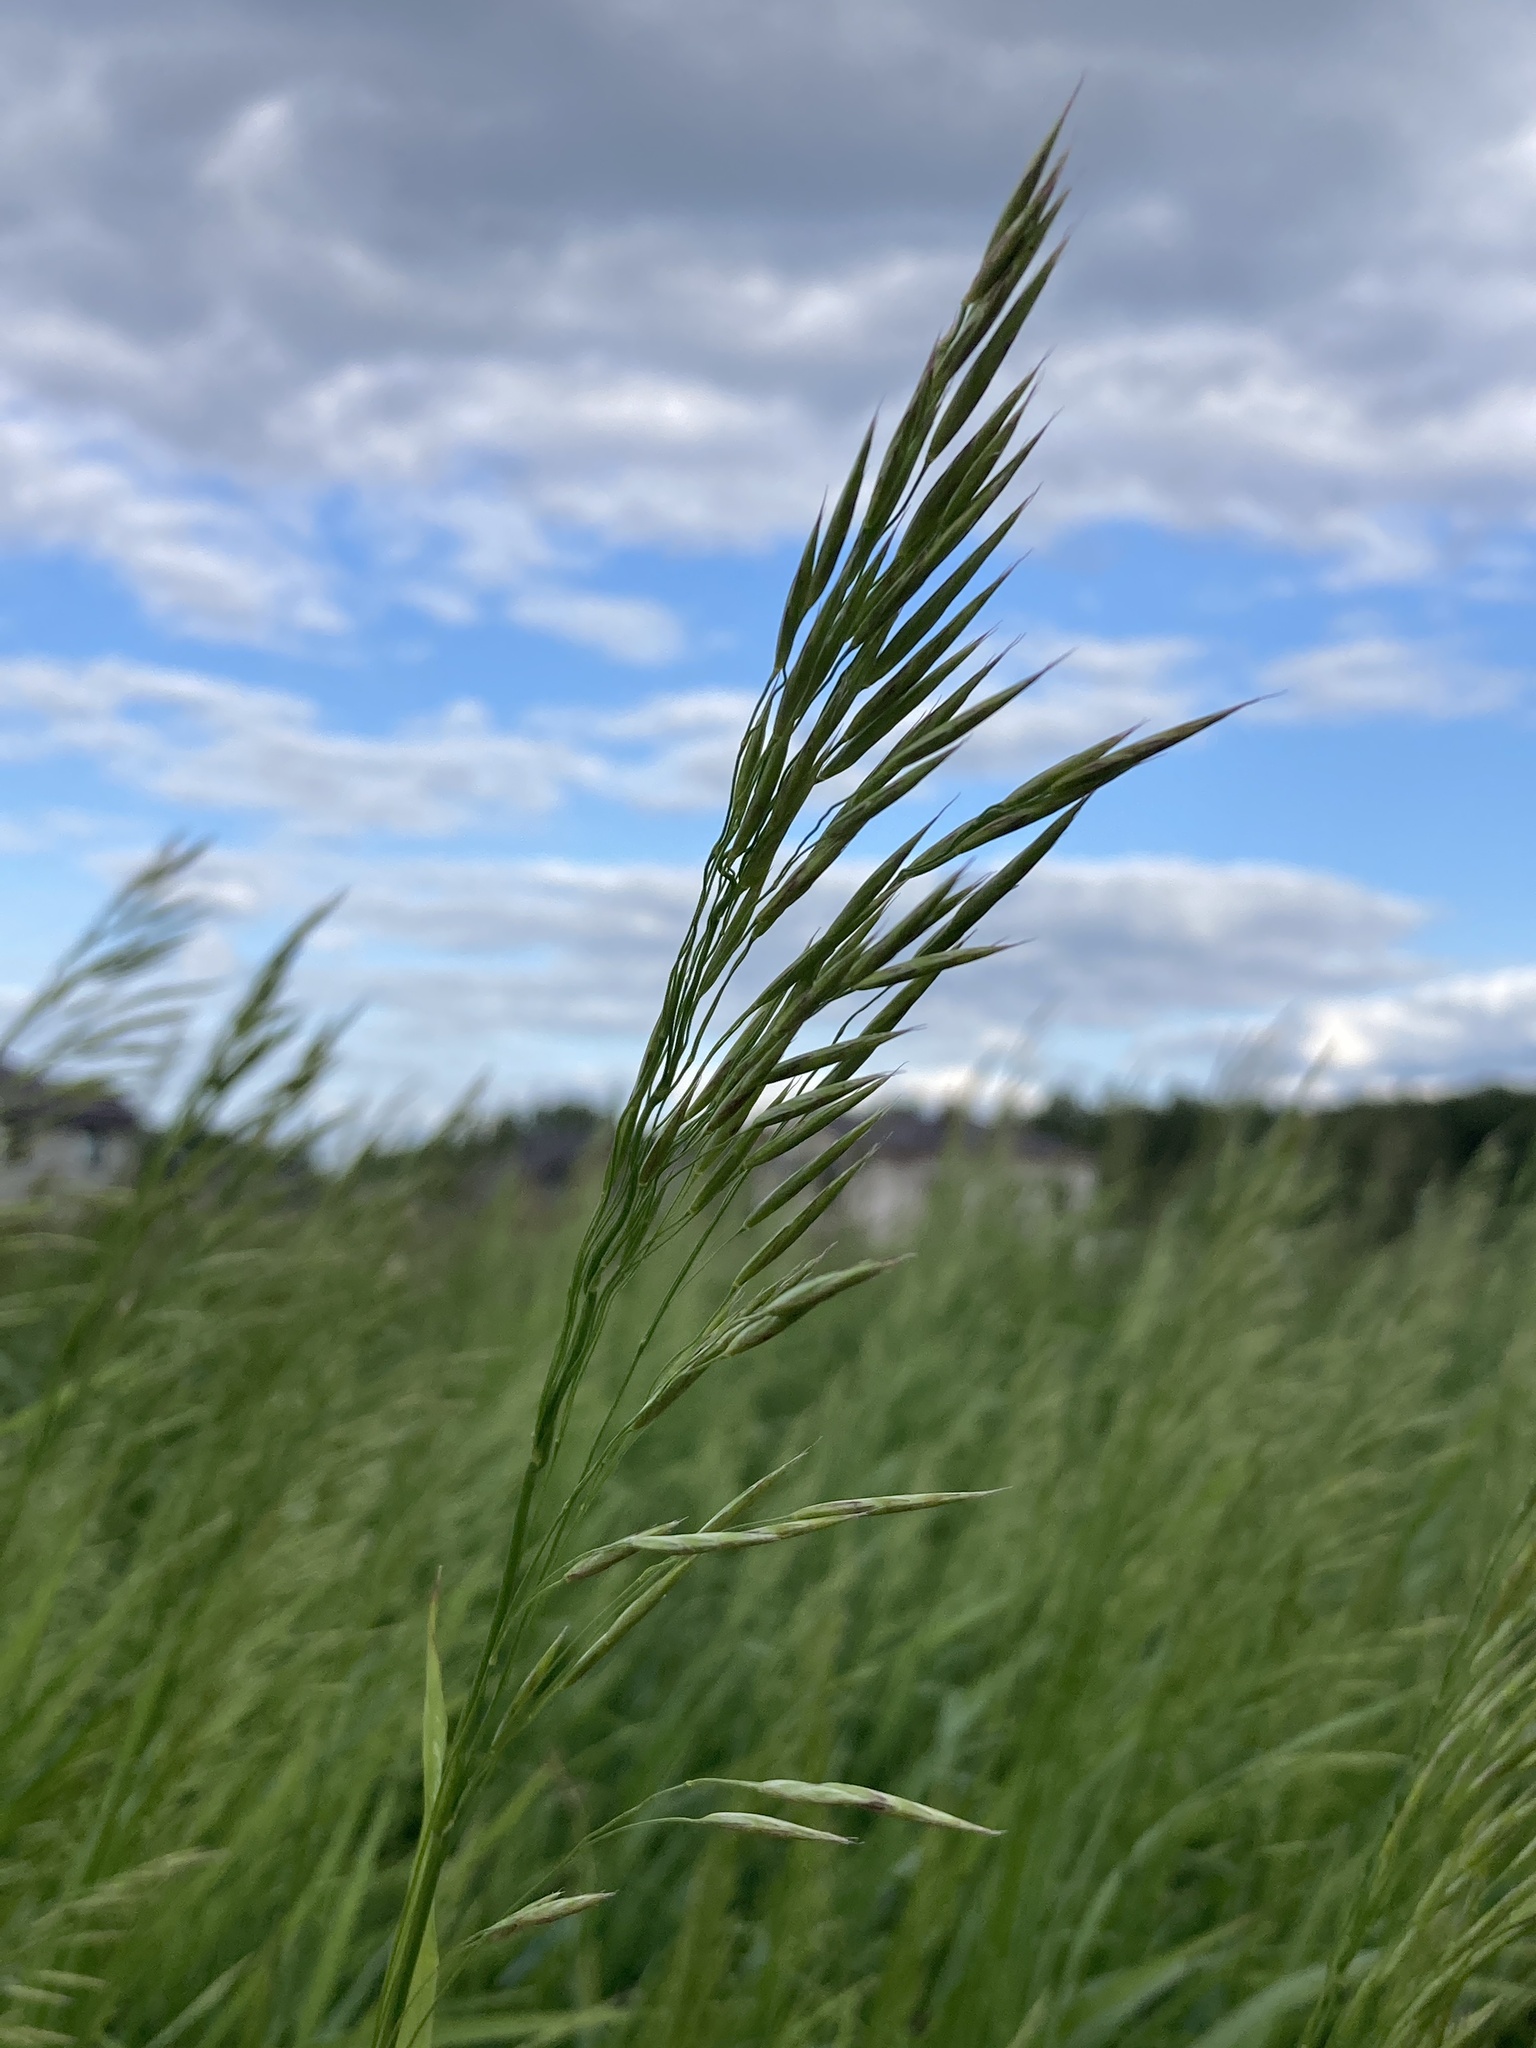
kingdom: Plantae
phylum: Tracheophyta
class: Liliopsida
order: Poales
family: Poaceae
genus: Bromus
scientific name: Bromus inermis
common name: Smooth brome
